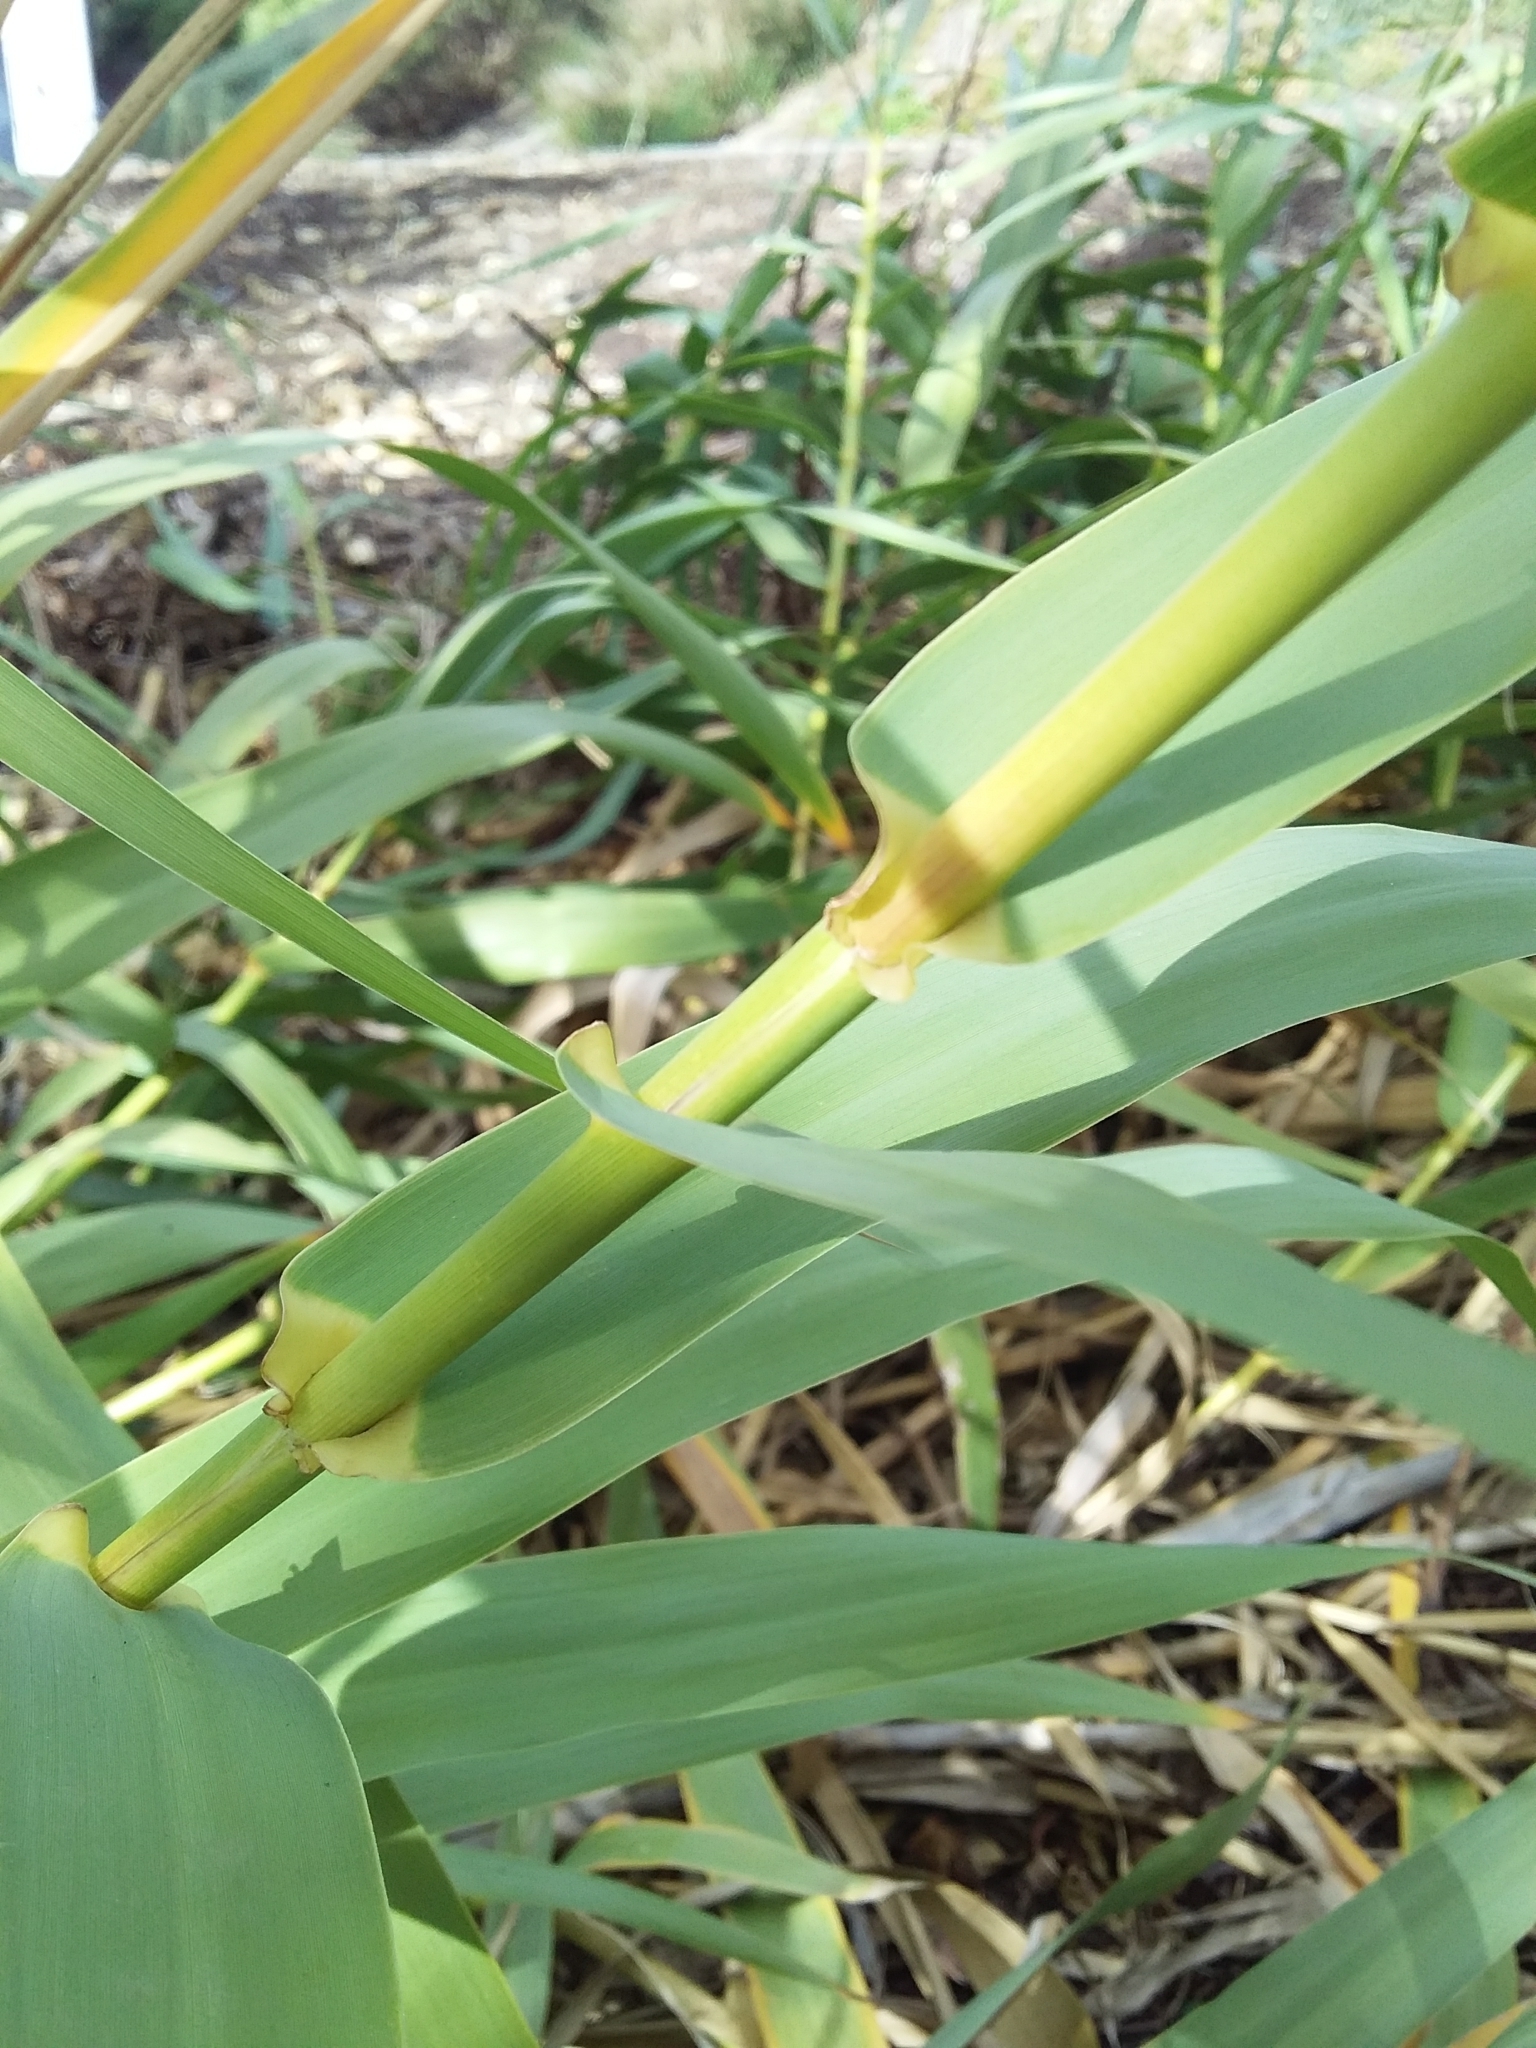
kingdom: Plantae
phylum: Tracheophyta
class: Liliopsida
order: Poales
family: Poaceae
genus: Arundo
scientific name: Arundo donax
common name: Giant reed
